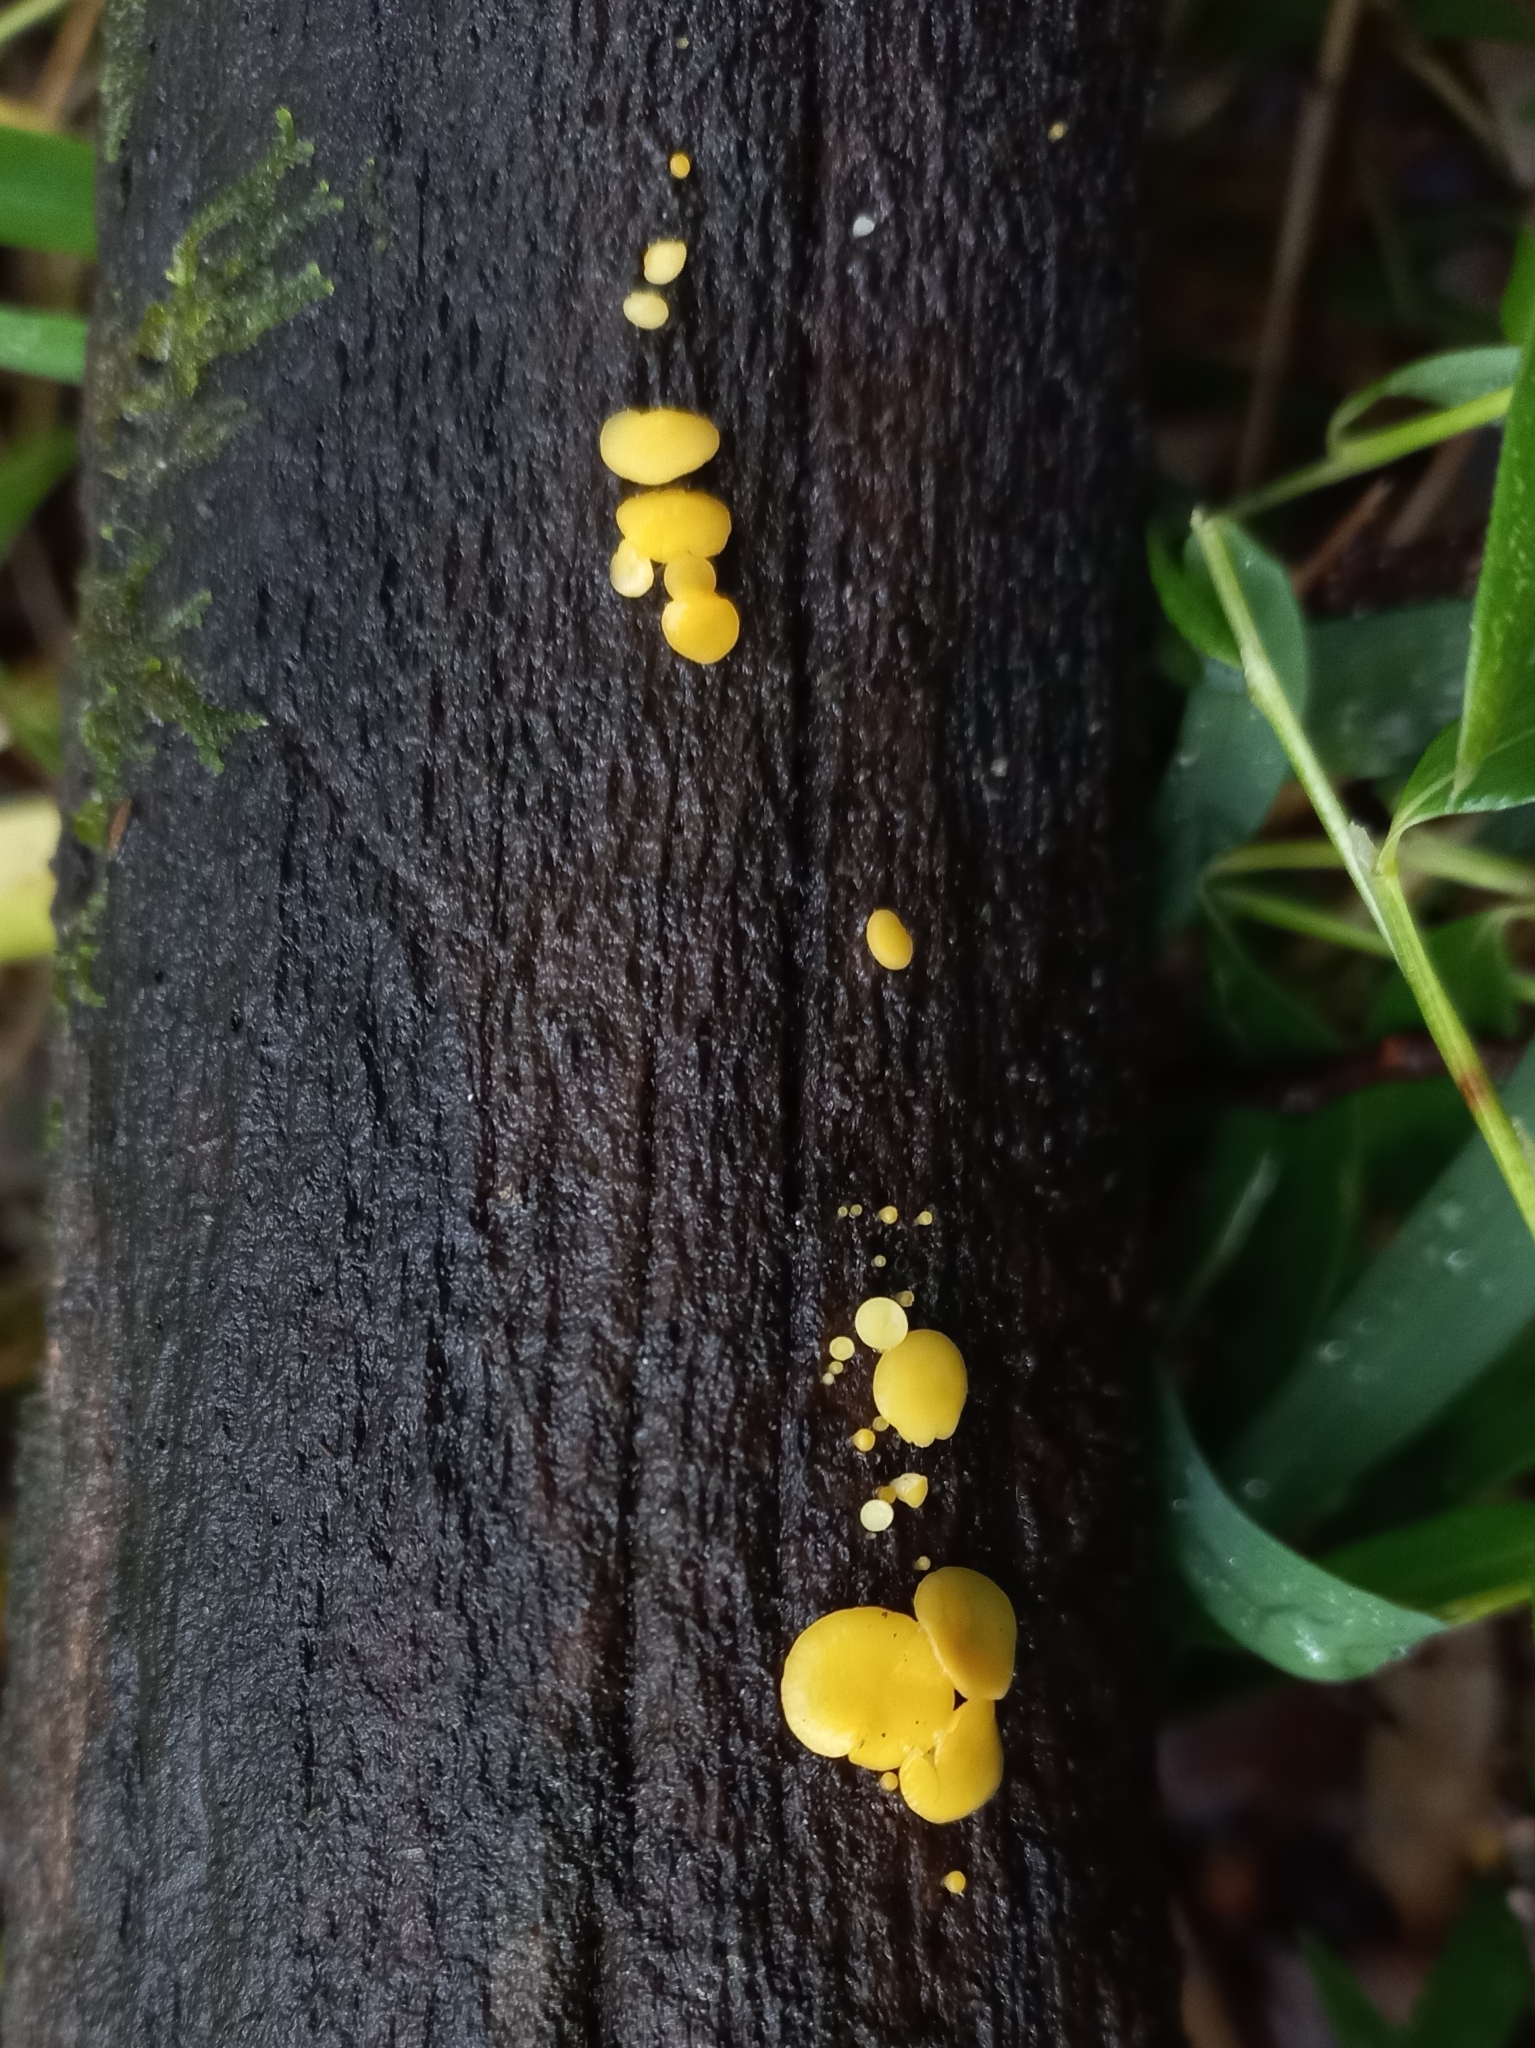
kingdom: Fungi
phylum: Ascomycota
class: Leotiomycetes
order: Helotiales
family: Pezizellaceae
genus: Calycina
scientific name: Calycina citrina
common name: Yellow fairy cups
